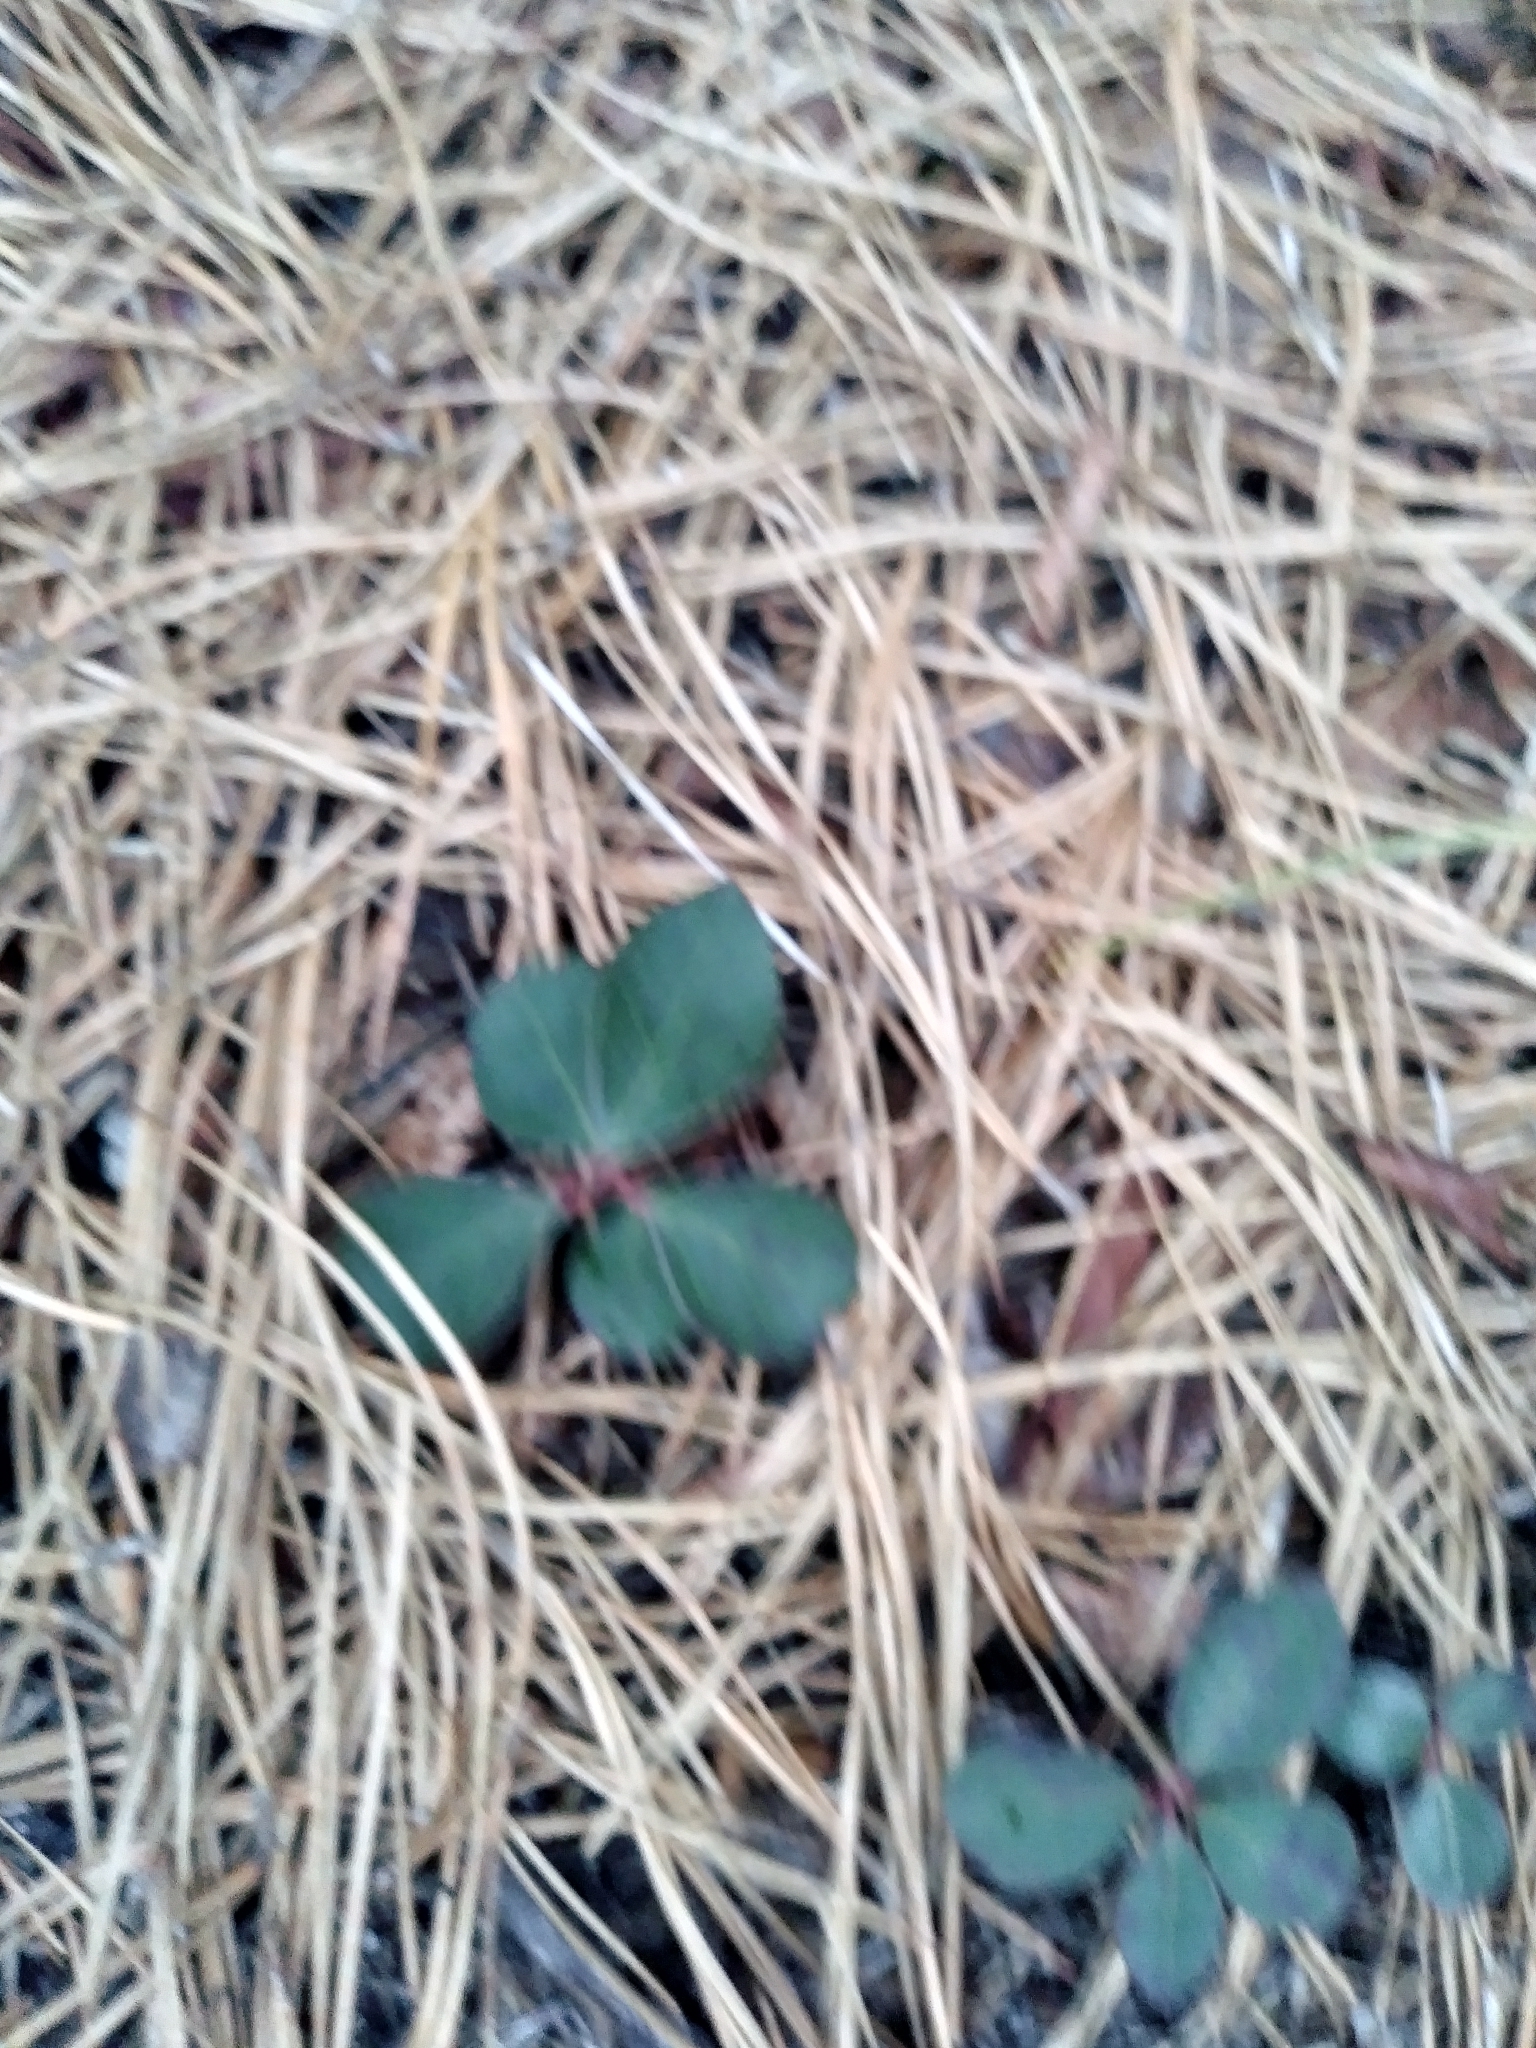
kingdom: Plantae
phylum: Tracheophyta
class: Magnoliopsida
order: Ericales
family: Ericaceae
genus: Gaultheria
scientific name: Gaultheria procumbens
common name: Checkerberry
